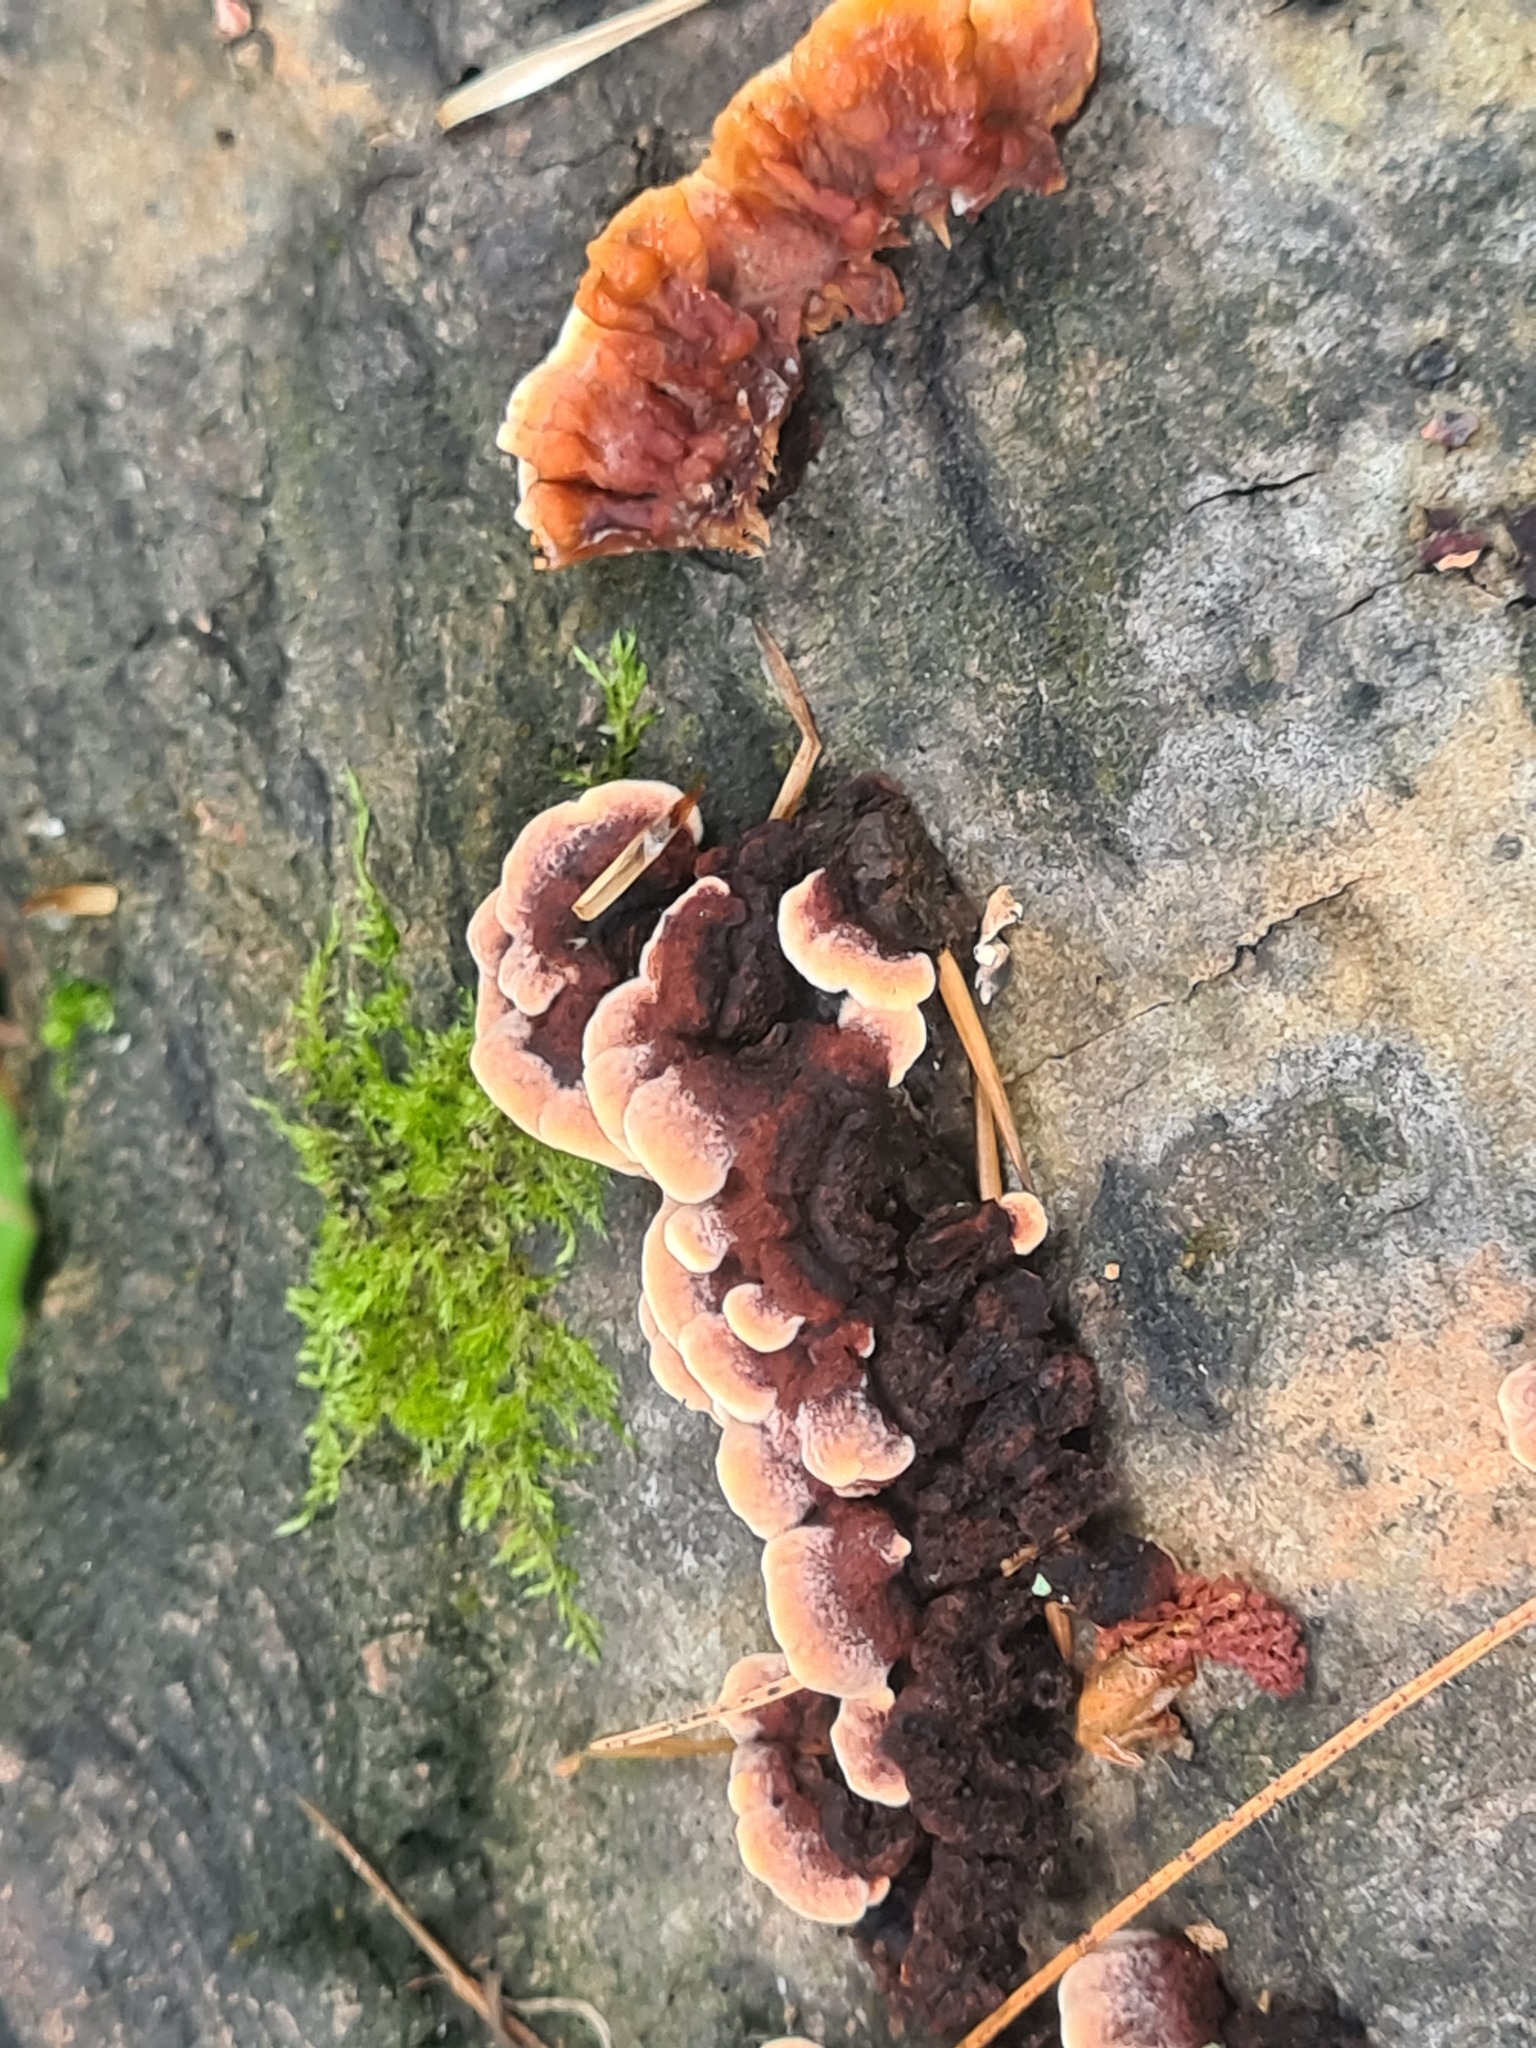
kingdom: Fungi
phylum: Basidiomycota
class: Agaricomycetes
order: Corticiales
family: Punctulariaceae
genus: Punctularia
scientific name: Punctularia strigosozonata
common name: White-rot fungus
